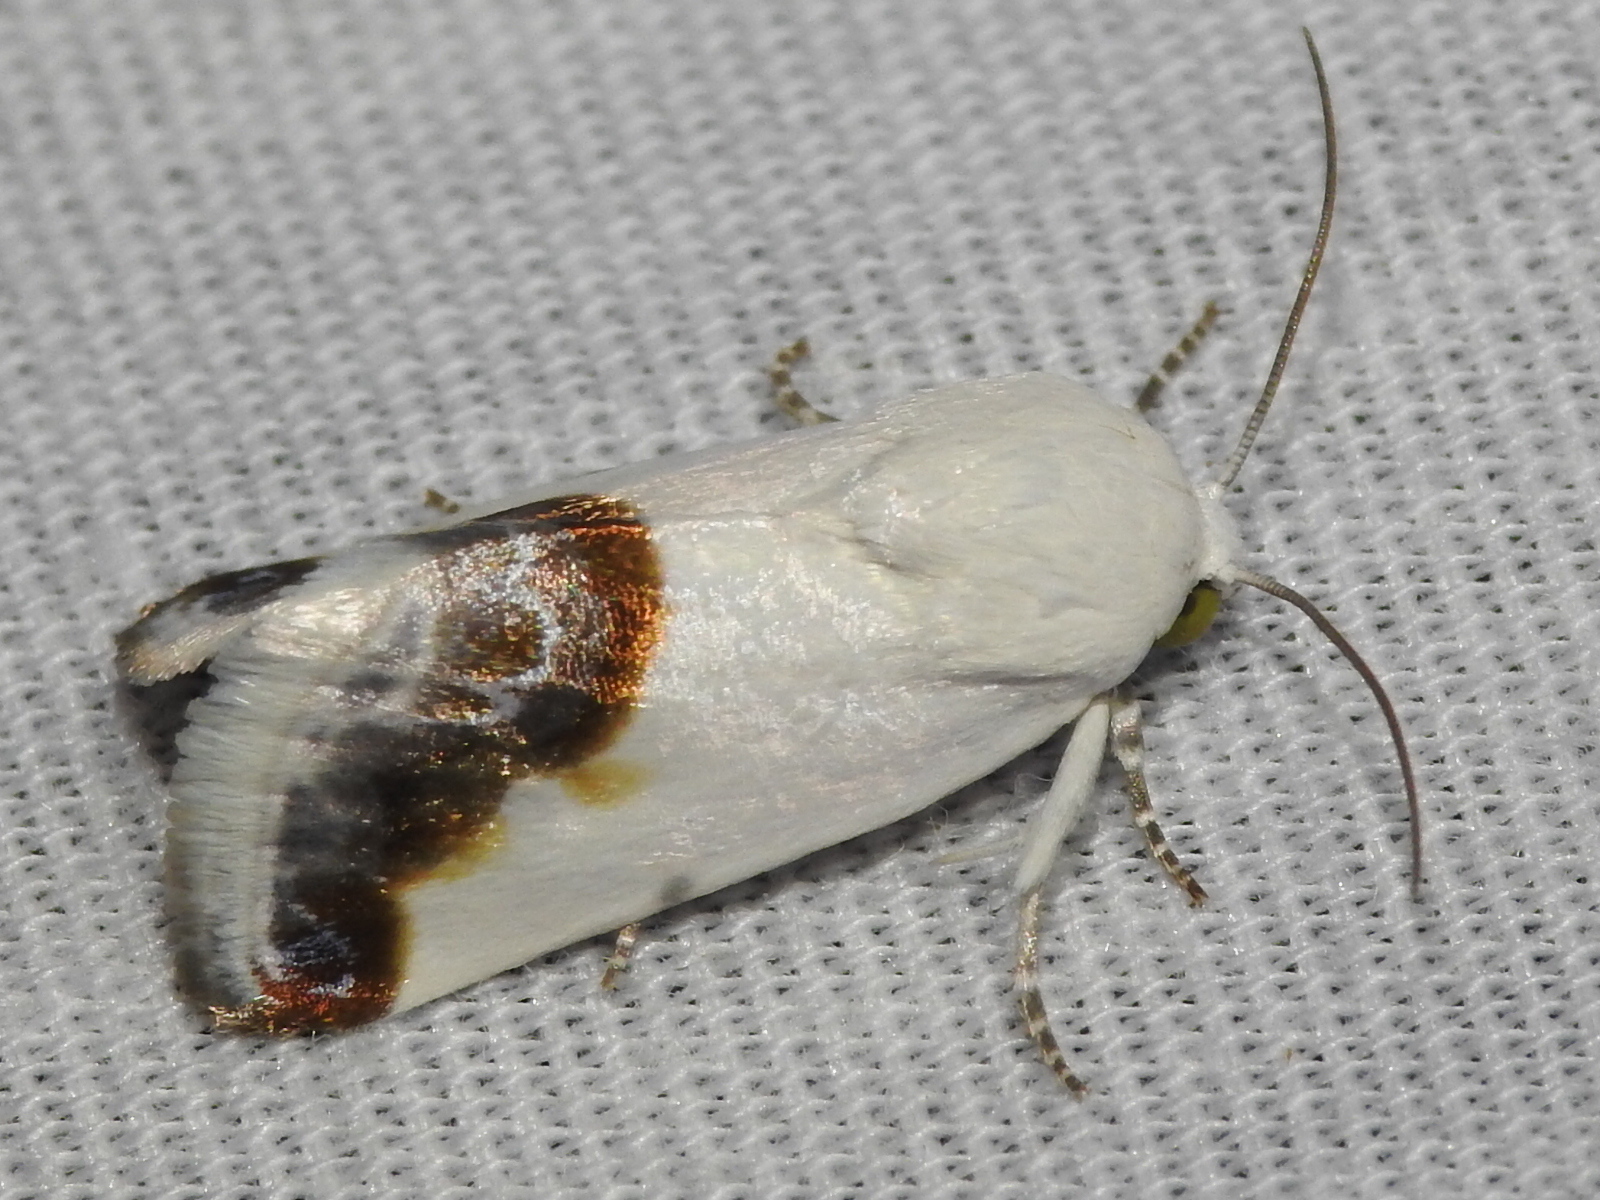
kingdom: Animalia
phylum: Arthropoda
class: Insecta
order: Lepidoptera
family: Noctuidae
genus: Acontia
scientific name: Acontia cretata
